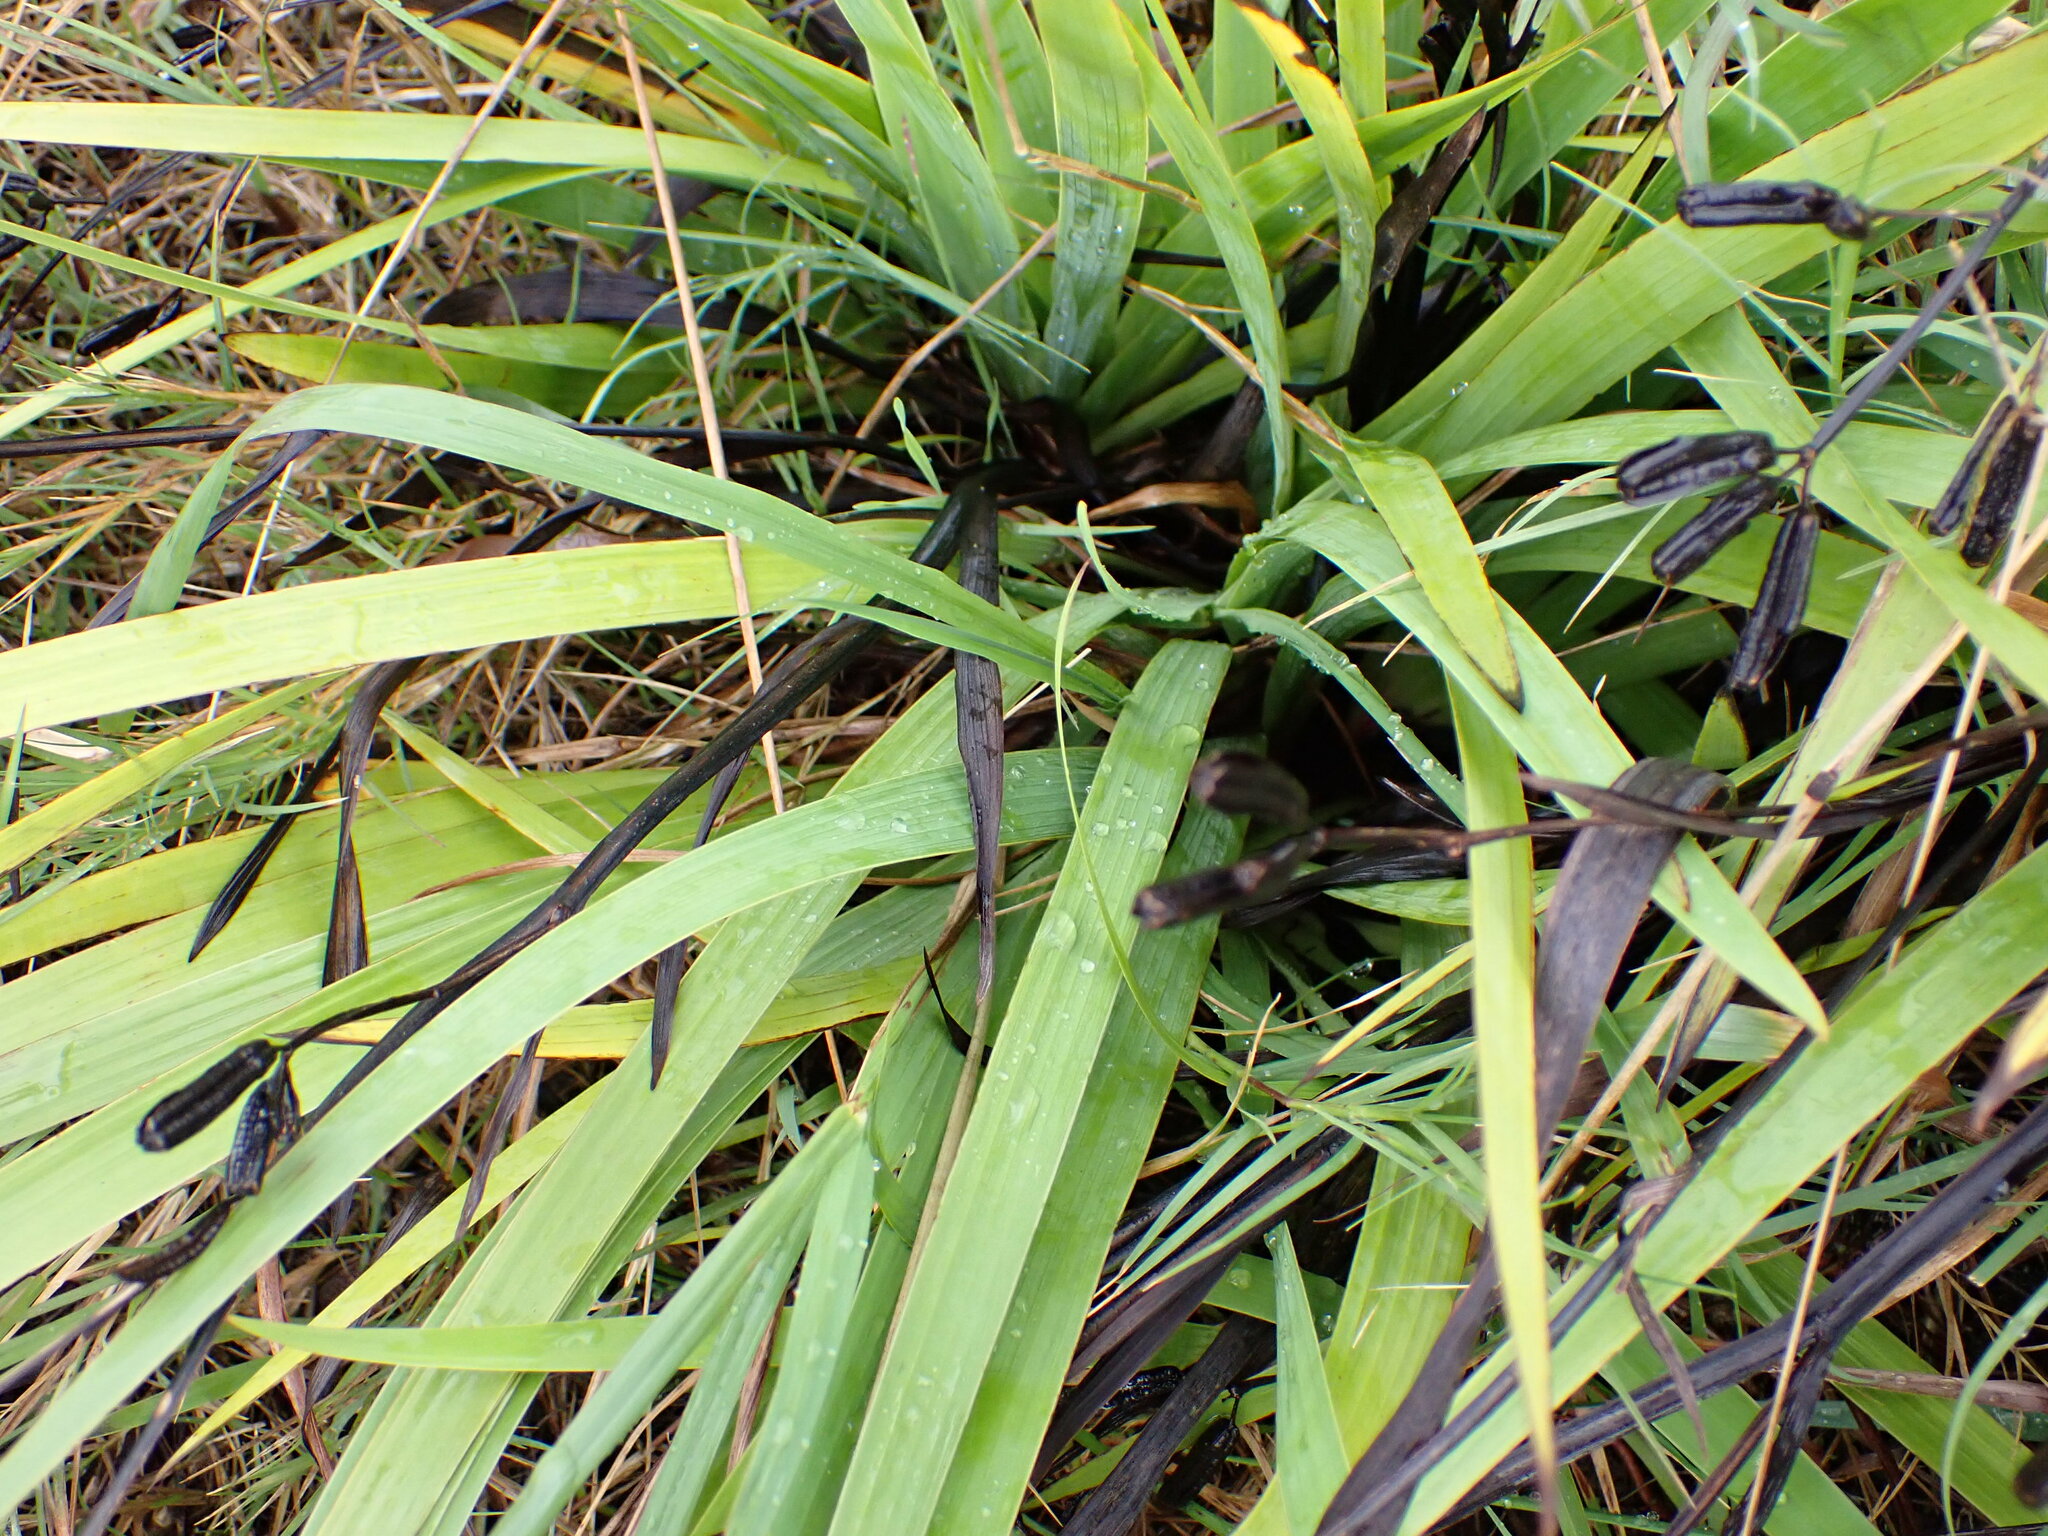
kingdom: Plantae
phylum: Tracheophyta
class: Liliopsida
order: Asparagales
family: Iridaceae
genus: Aristea
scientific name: Aristea ecklonii
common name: Blue corn-lily
